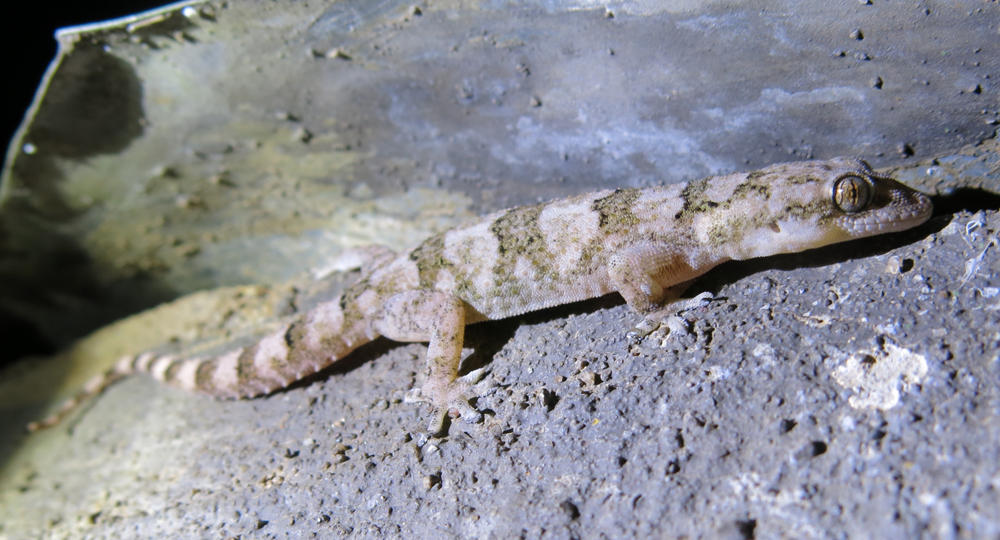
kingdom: Animalia
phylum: Chordata
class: Squamata
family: Gekkonidae
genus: Hemidactylus
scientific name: Hemidactylus mabouia
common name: House gecko
